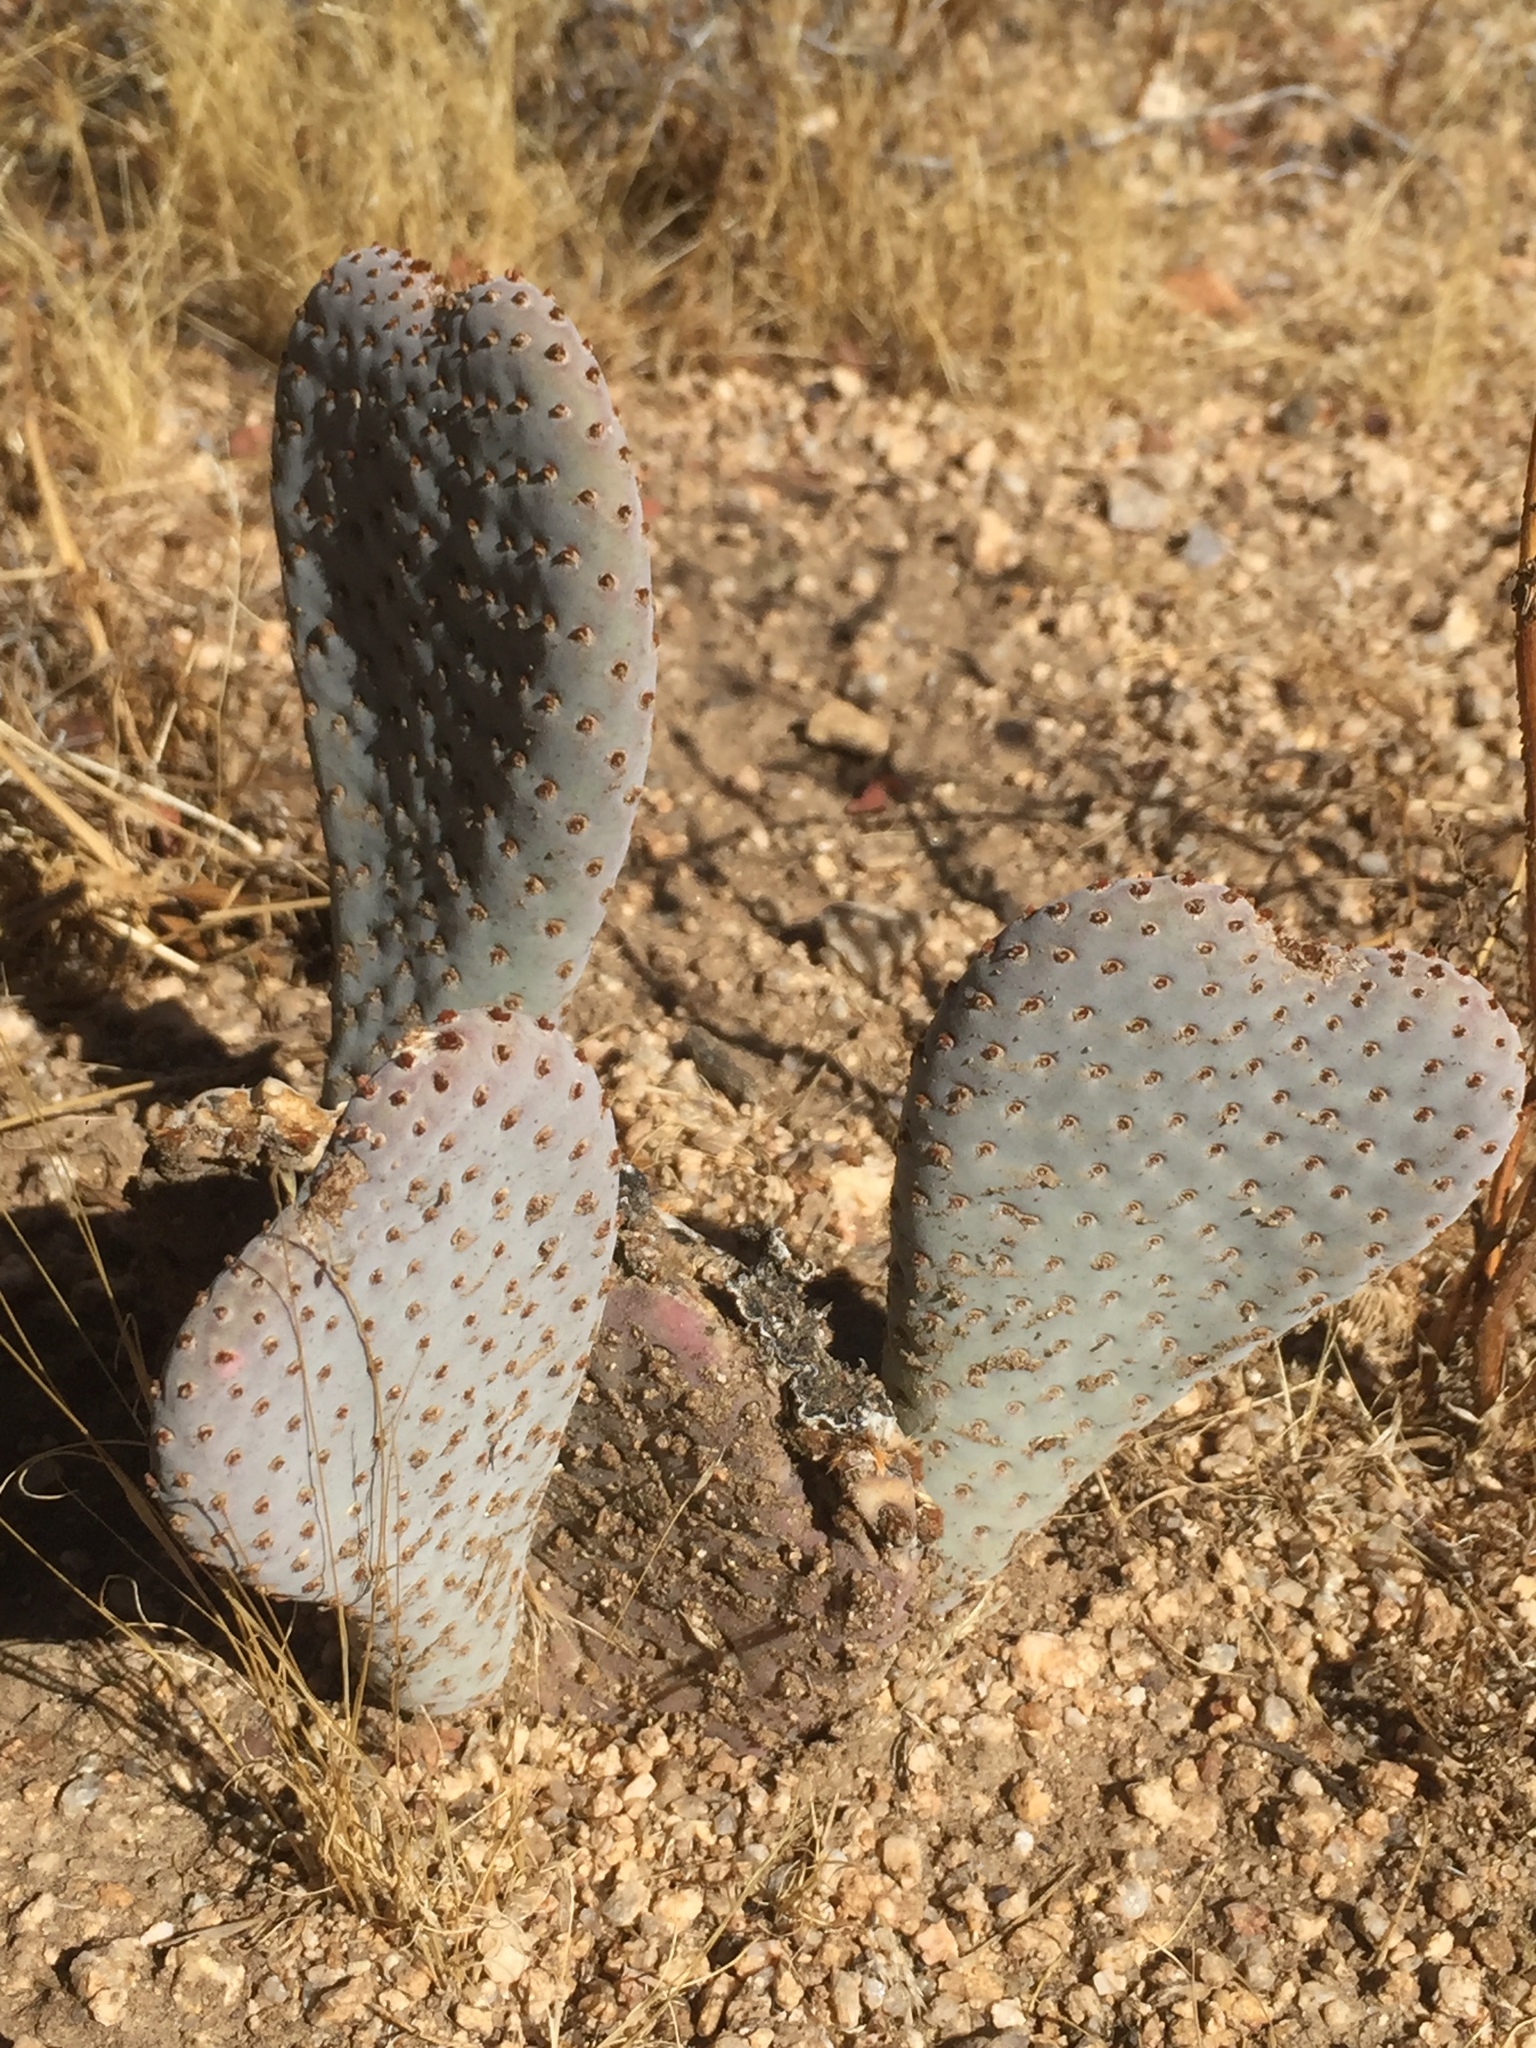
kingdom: Plantae
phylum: Tracheophyta
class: Magnoliopsida
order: Caryophyllales
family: Cactaceae
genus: Opuntia
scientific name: Opuntia basilaris
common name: Beavertail prickly-pear
